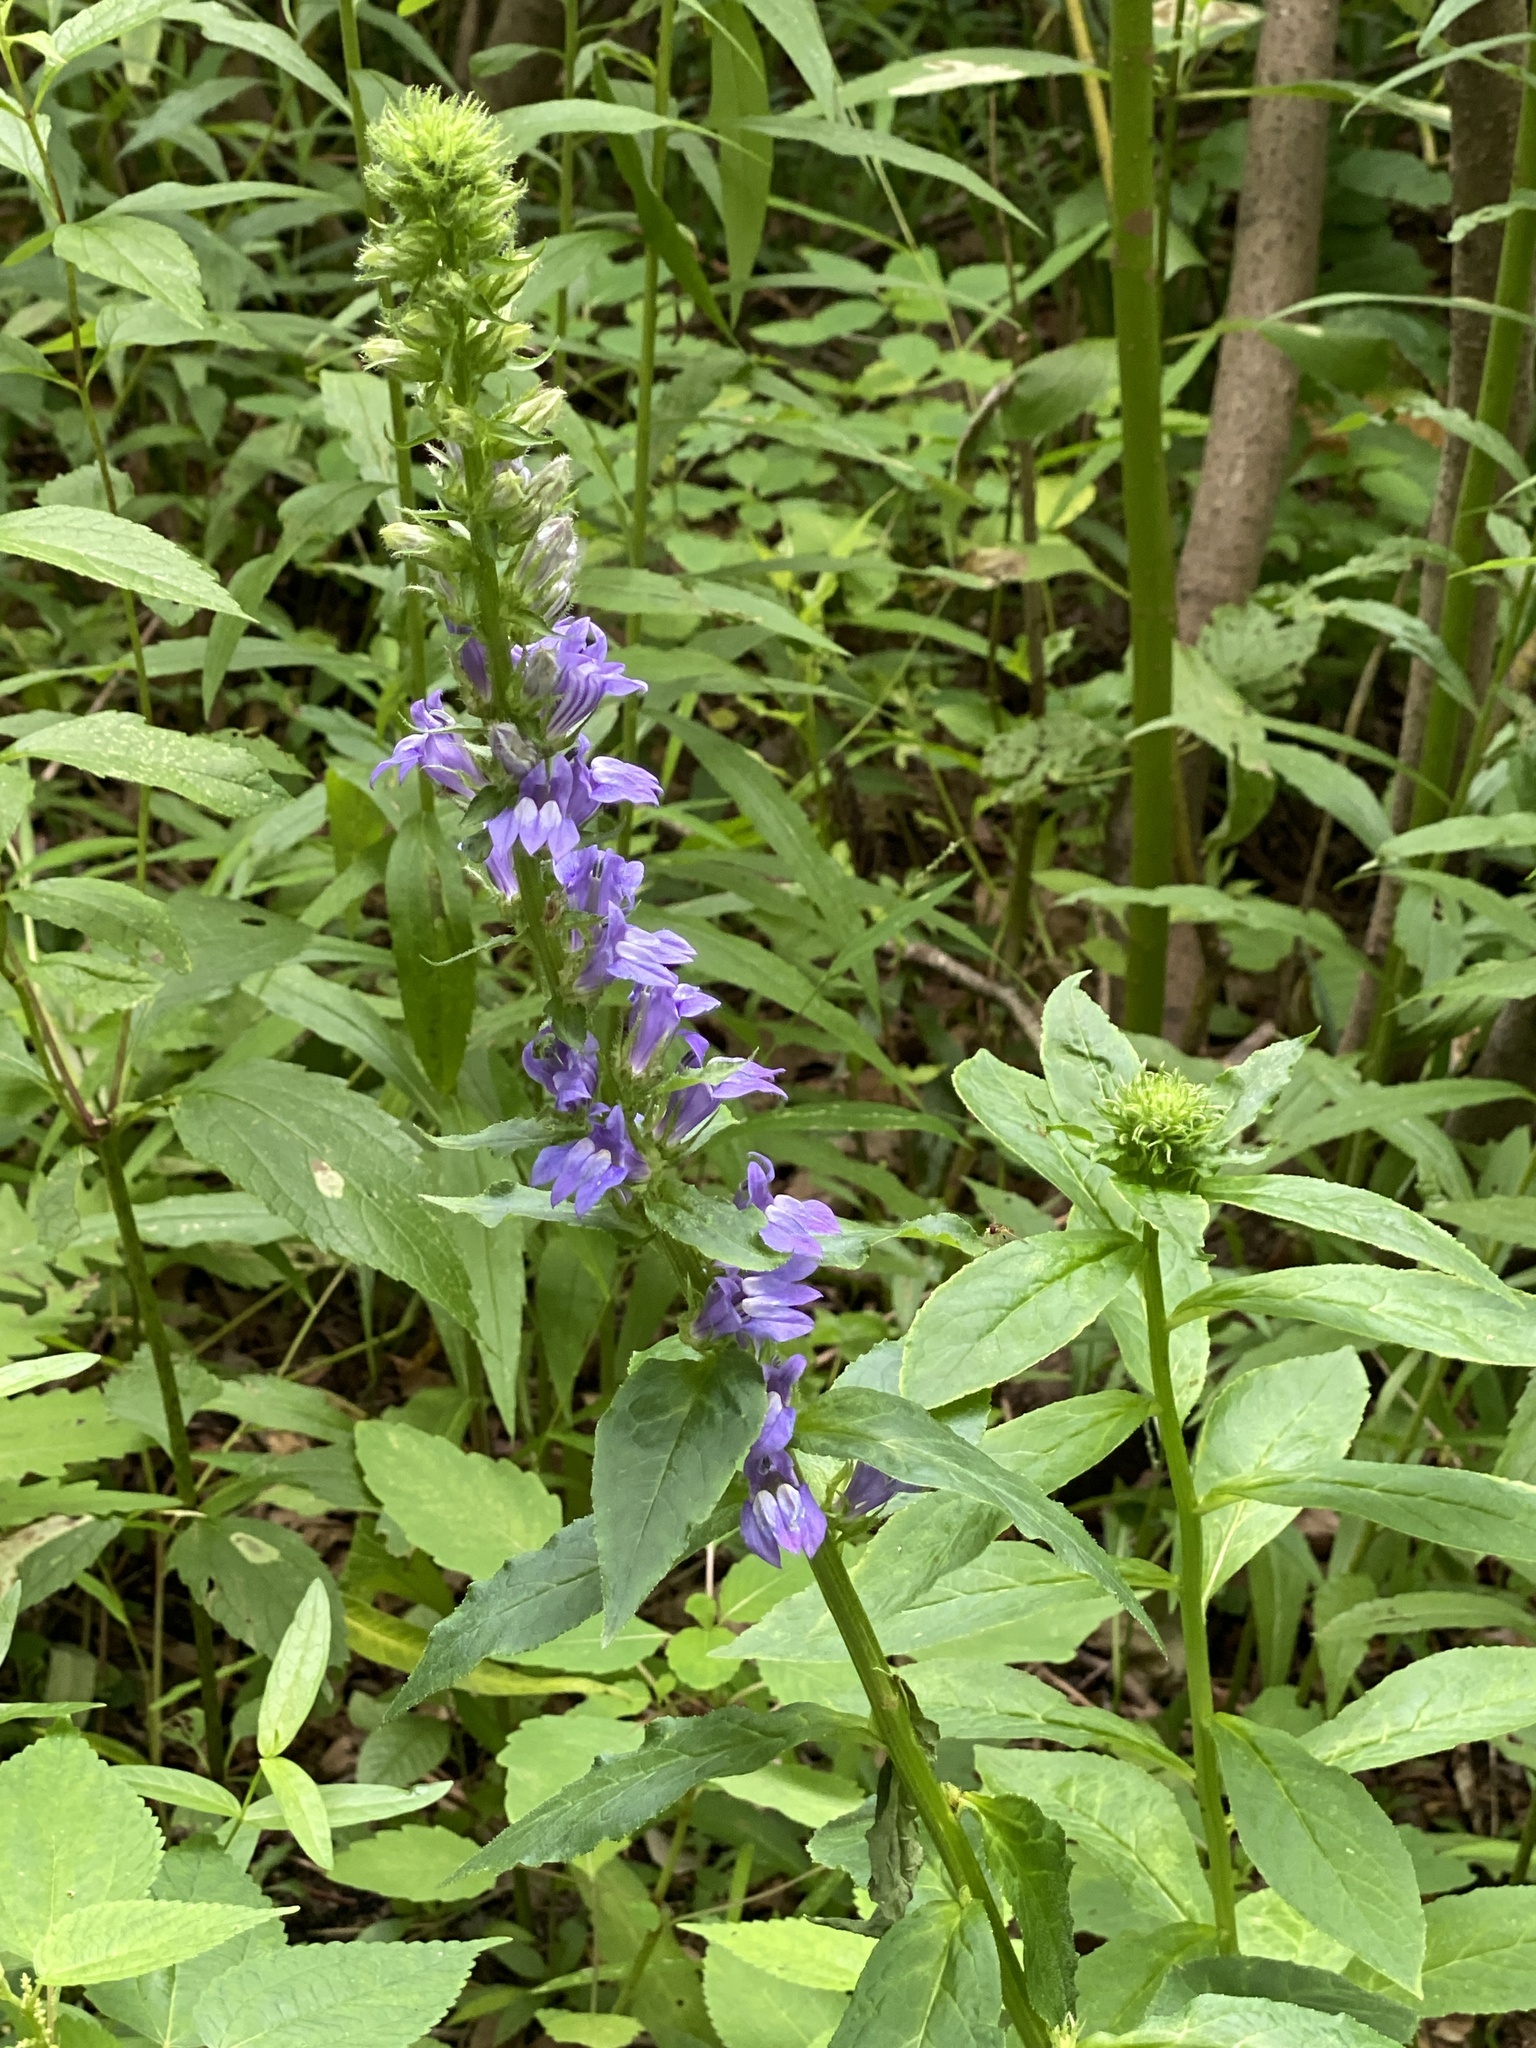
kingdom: Plantae
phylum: Tracheophyta
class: Magnoliopsida
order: Asterales
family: Campanulaceae
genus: Lobelia
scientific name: Lobelia siphilitica
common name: Great lobelia
